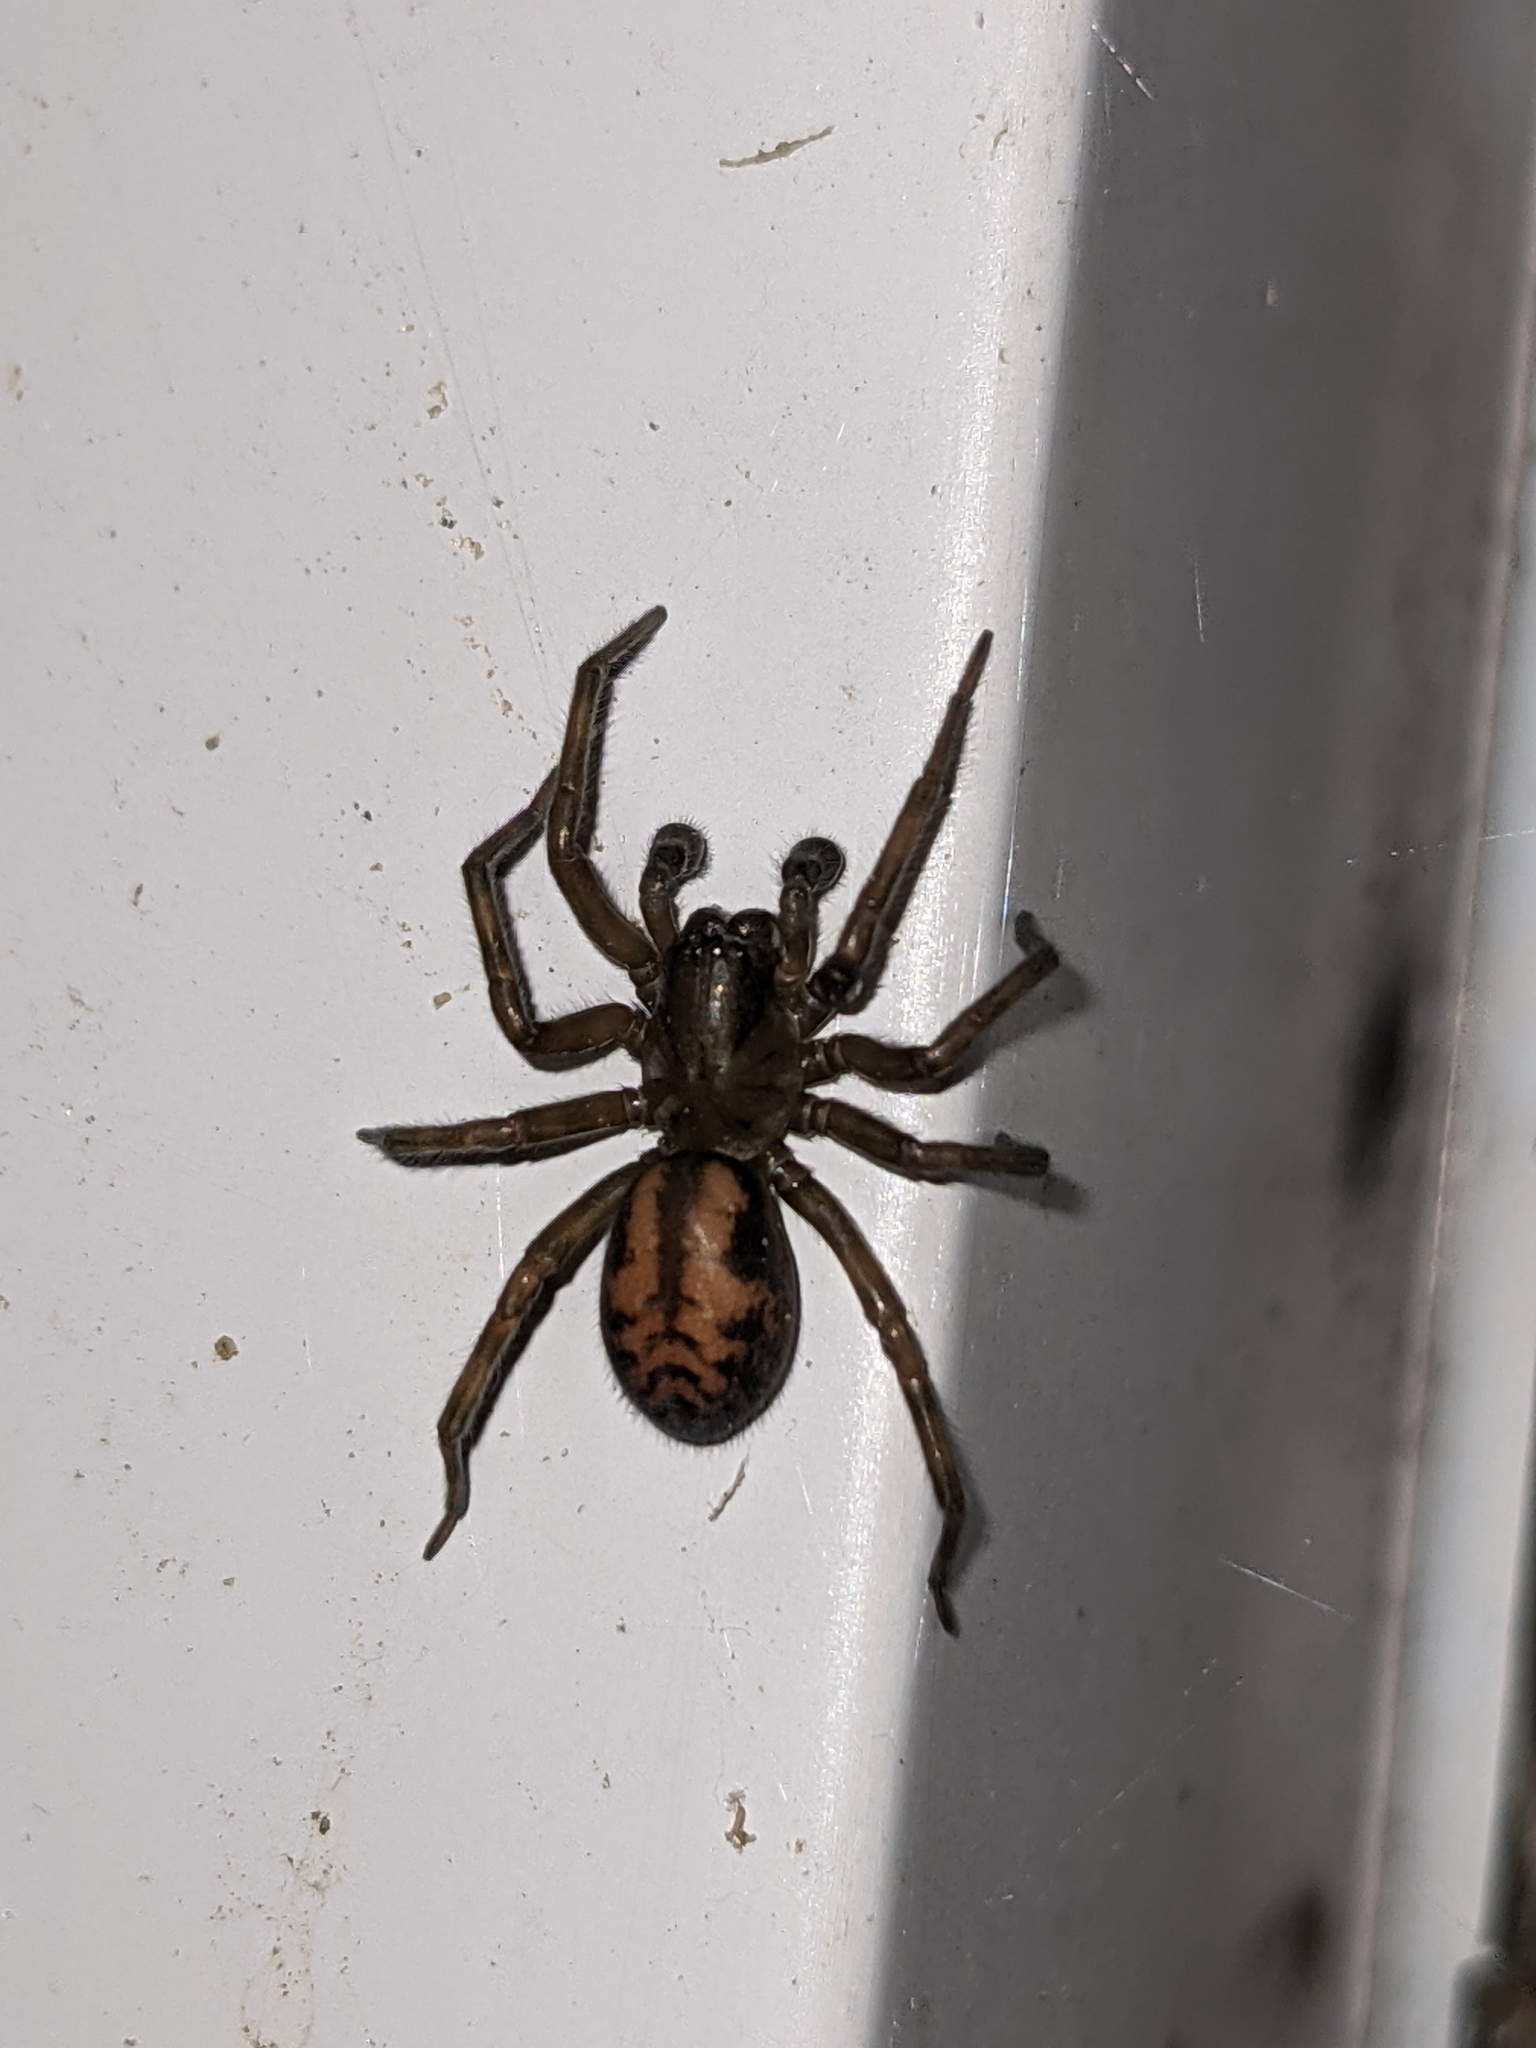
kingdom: Animalia
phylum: Arthropoda
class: Arachnida
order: Araneae
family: Amaurobiidae
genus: Callobius
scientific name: Callobius bennetti
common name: Bennett's laceweaver
